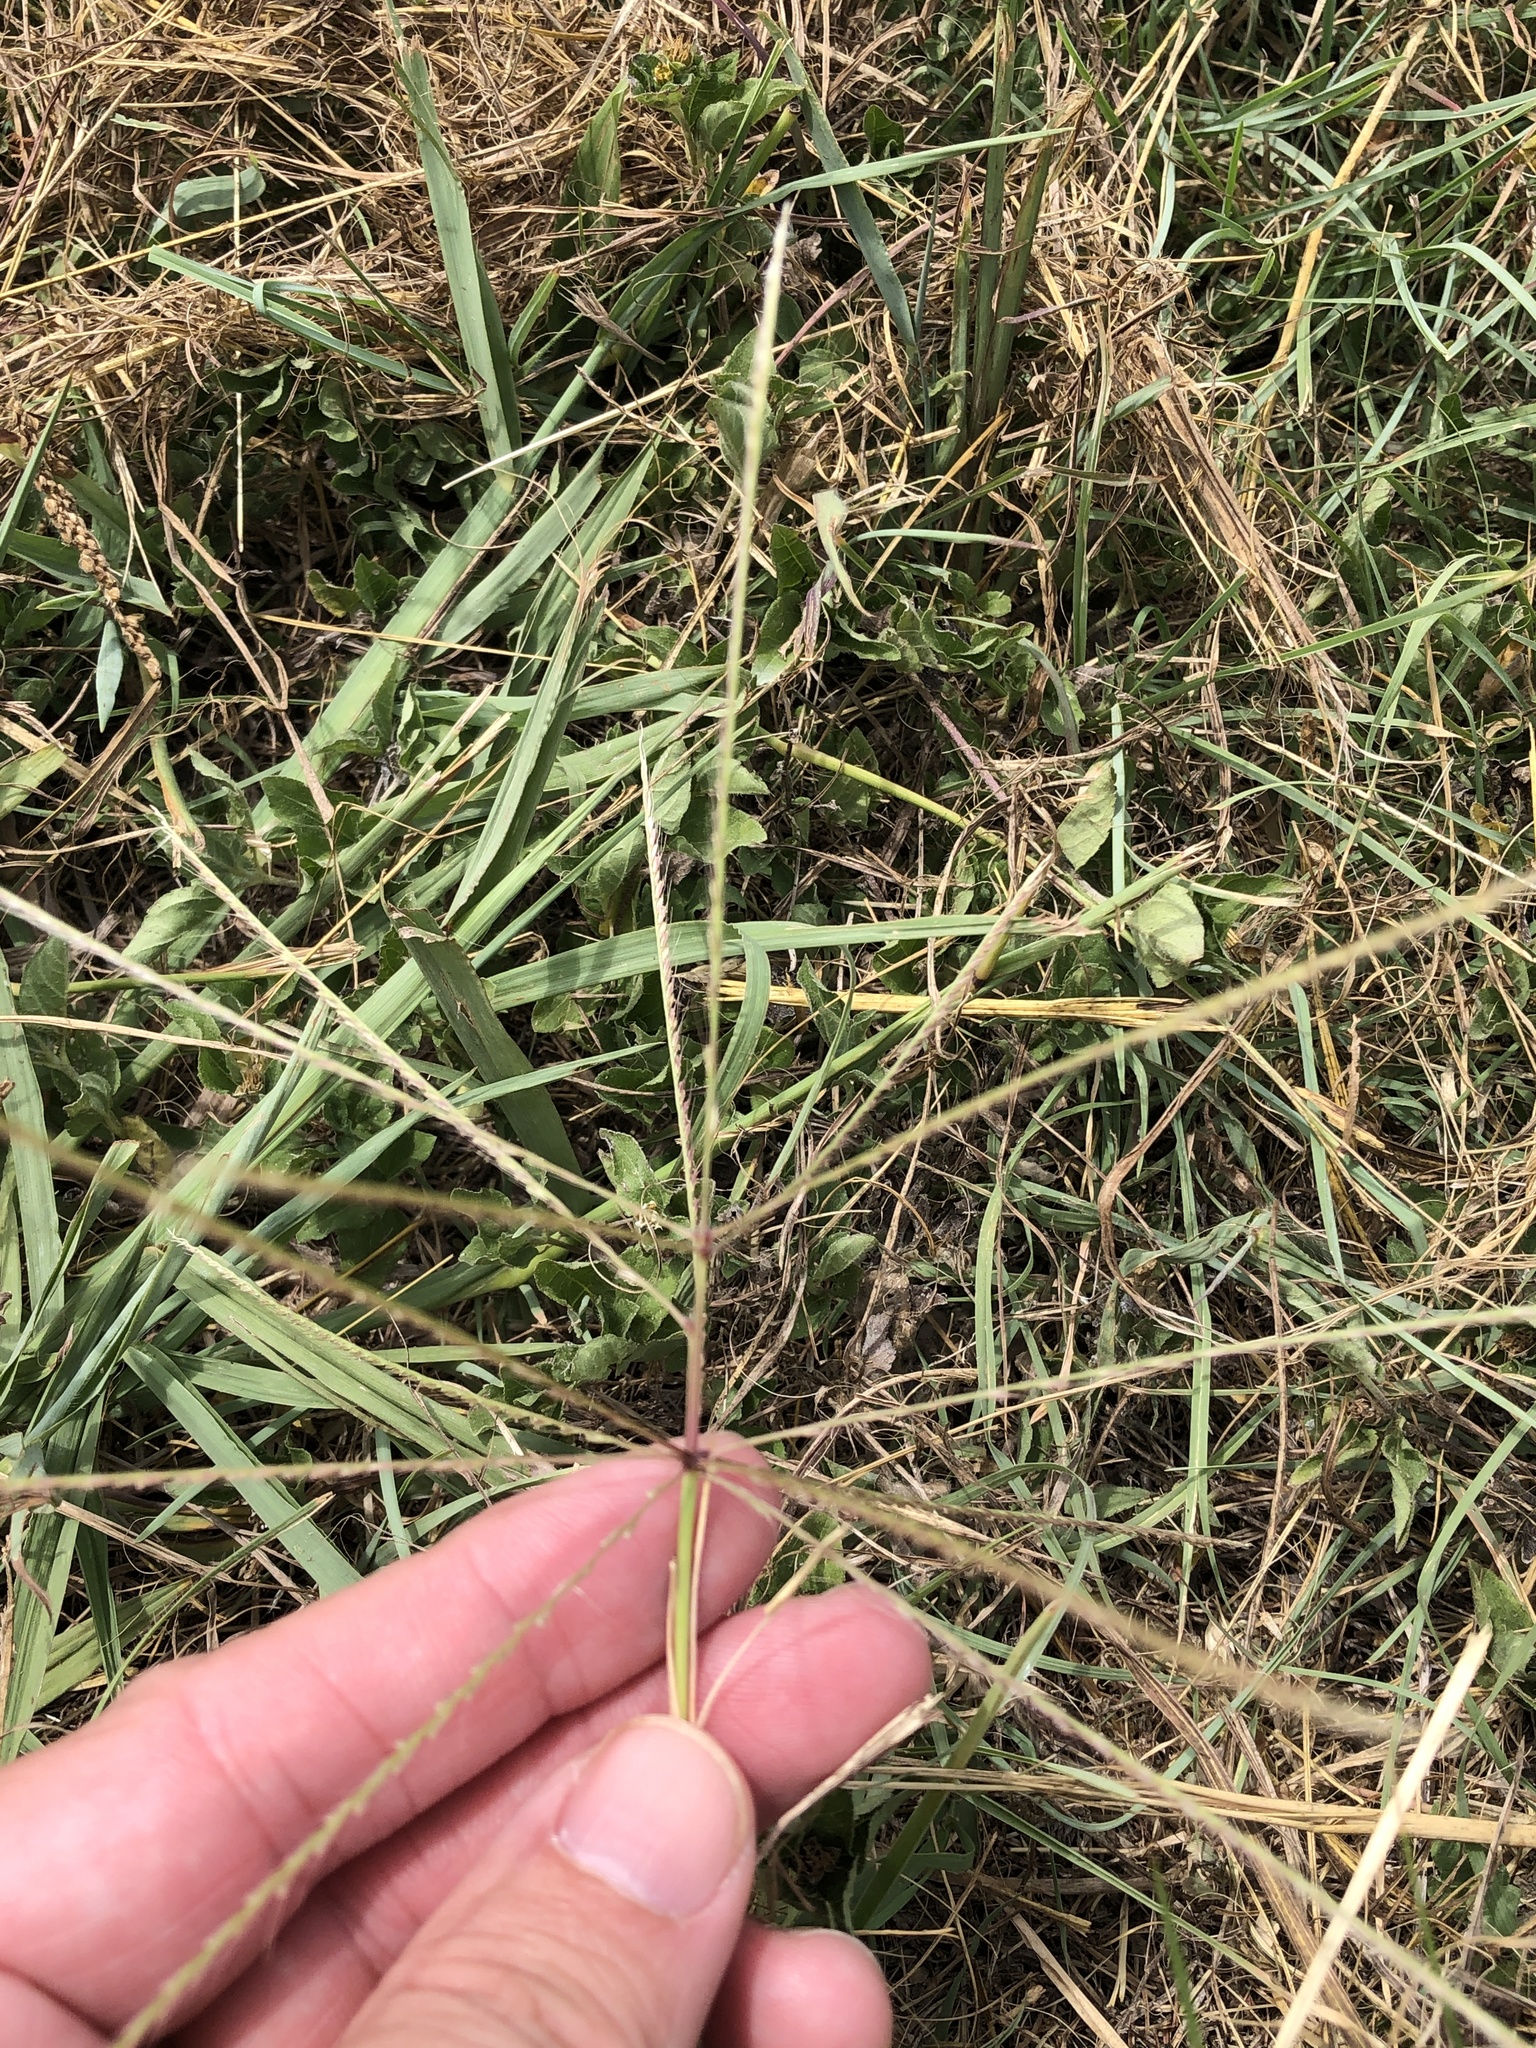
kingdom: Plantae
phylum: Tracheophyta
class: Liliopsida
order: Poales
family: Poaceae
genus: Chloris
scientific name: Chloris verticillata
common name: Tumble windmill grass
